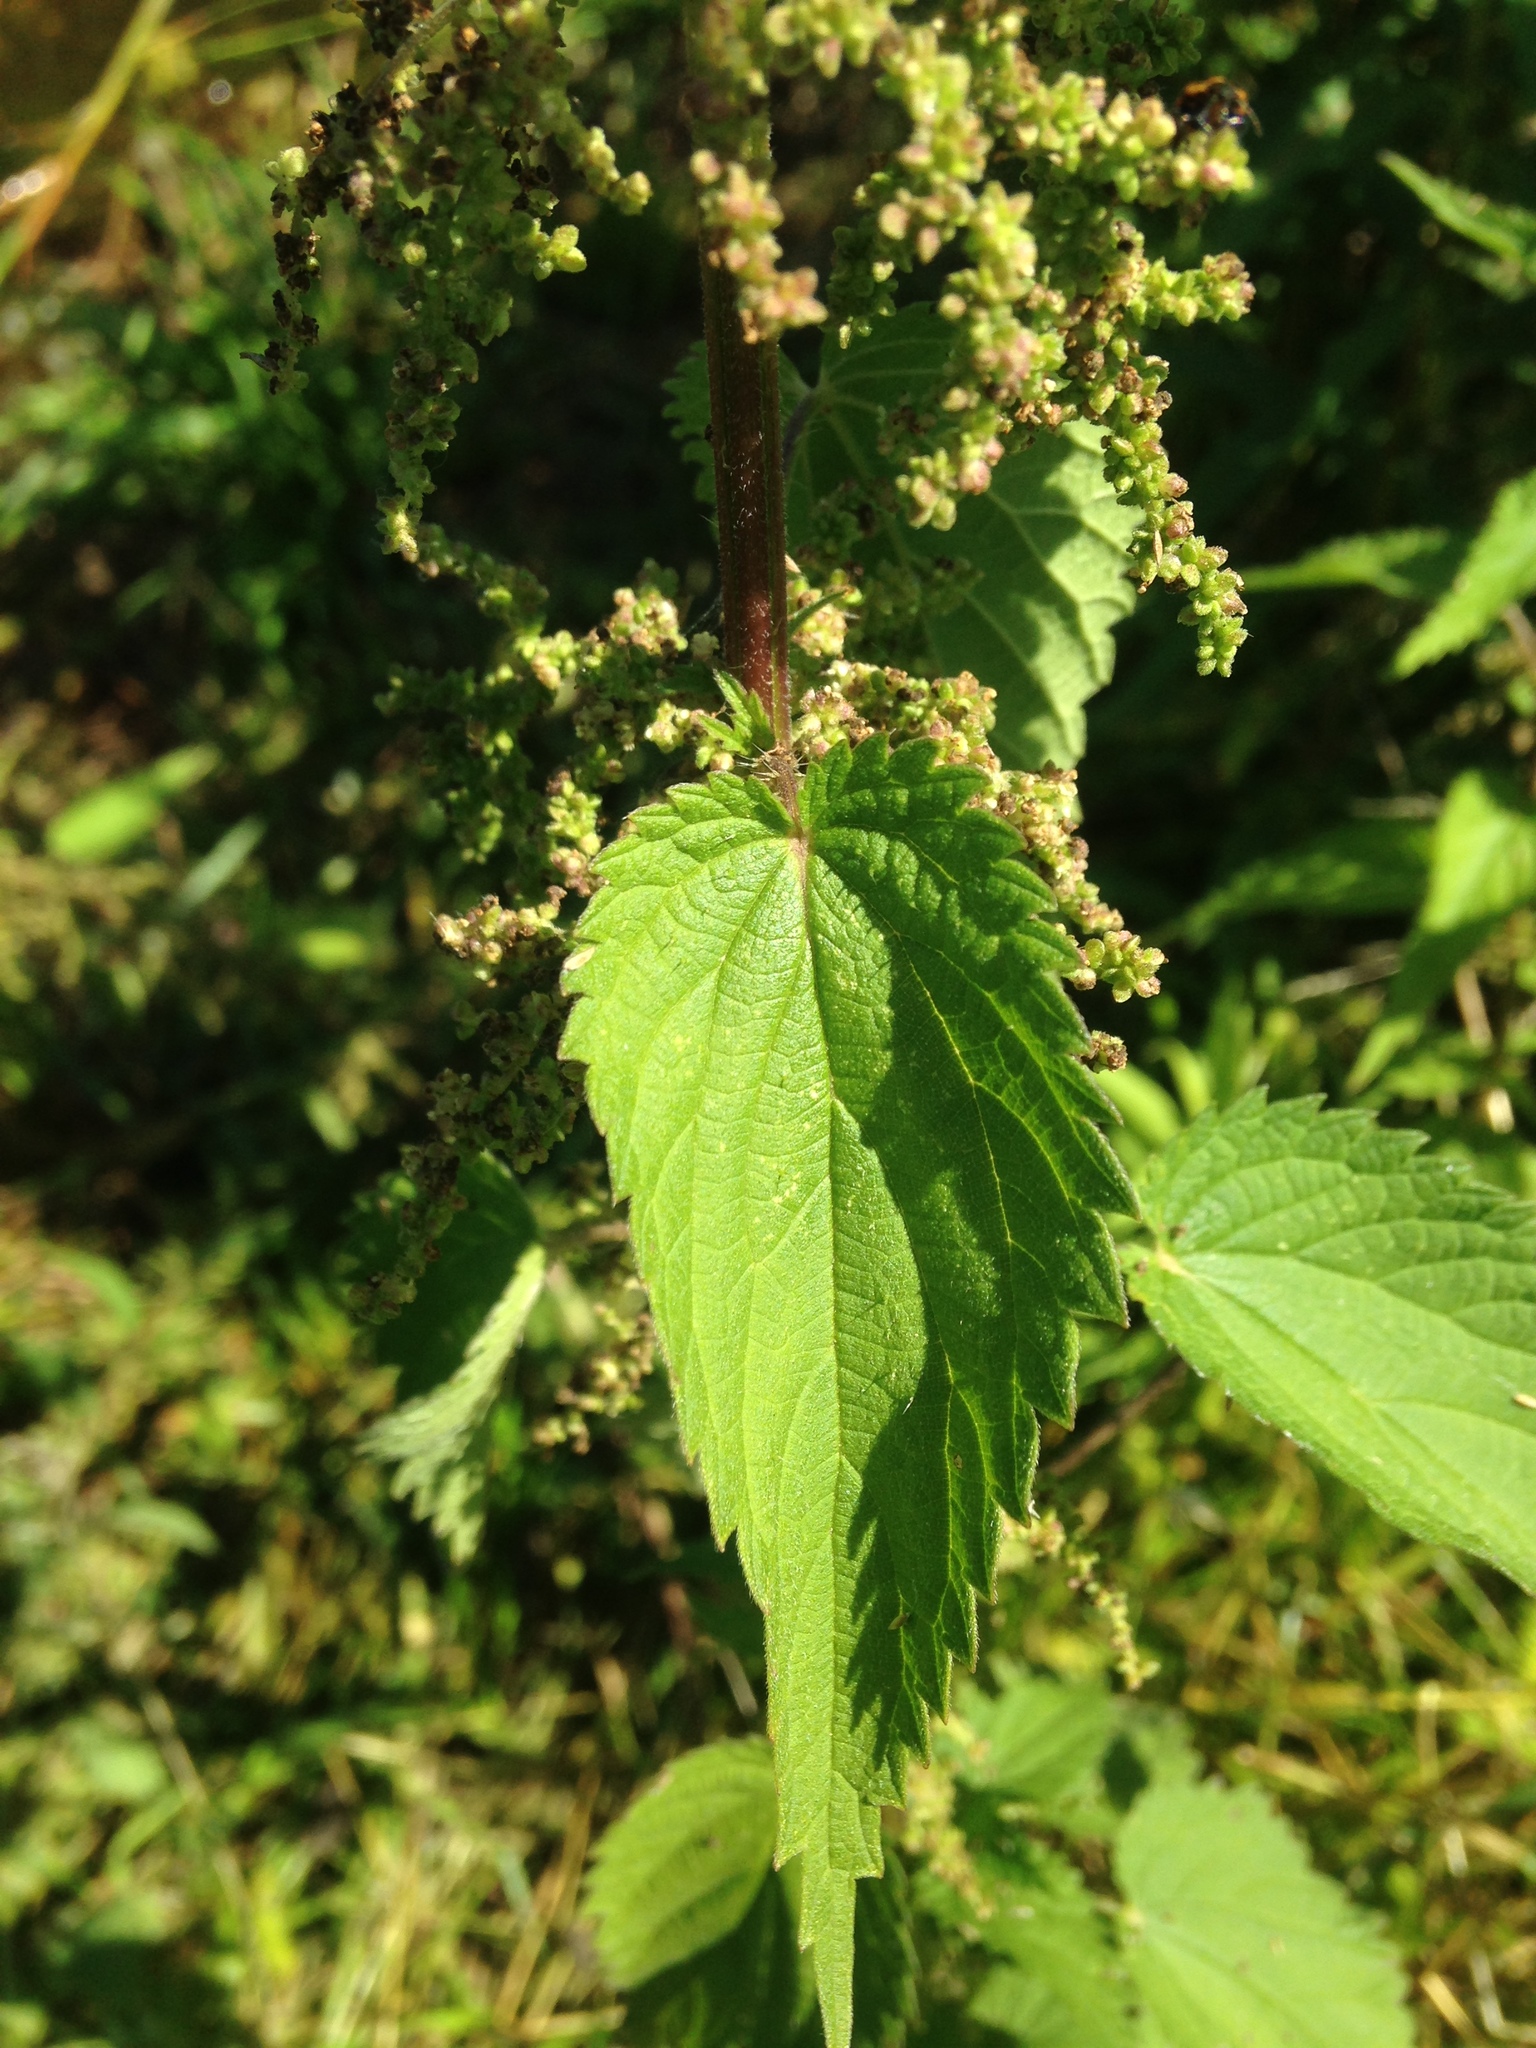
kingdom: Plantae
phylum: Tracheophyta
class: Magnoliopsida
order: Rosales
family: Urticaceae
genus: Urtica
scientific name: Urtica dioica
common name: Common nettle
